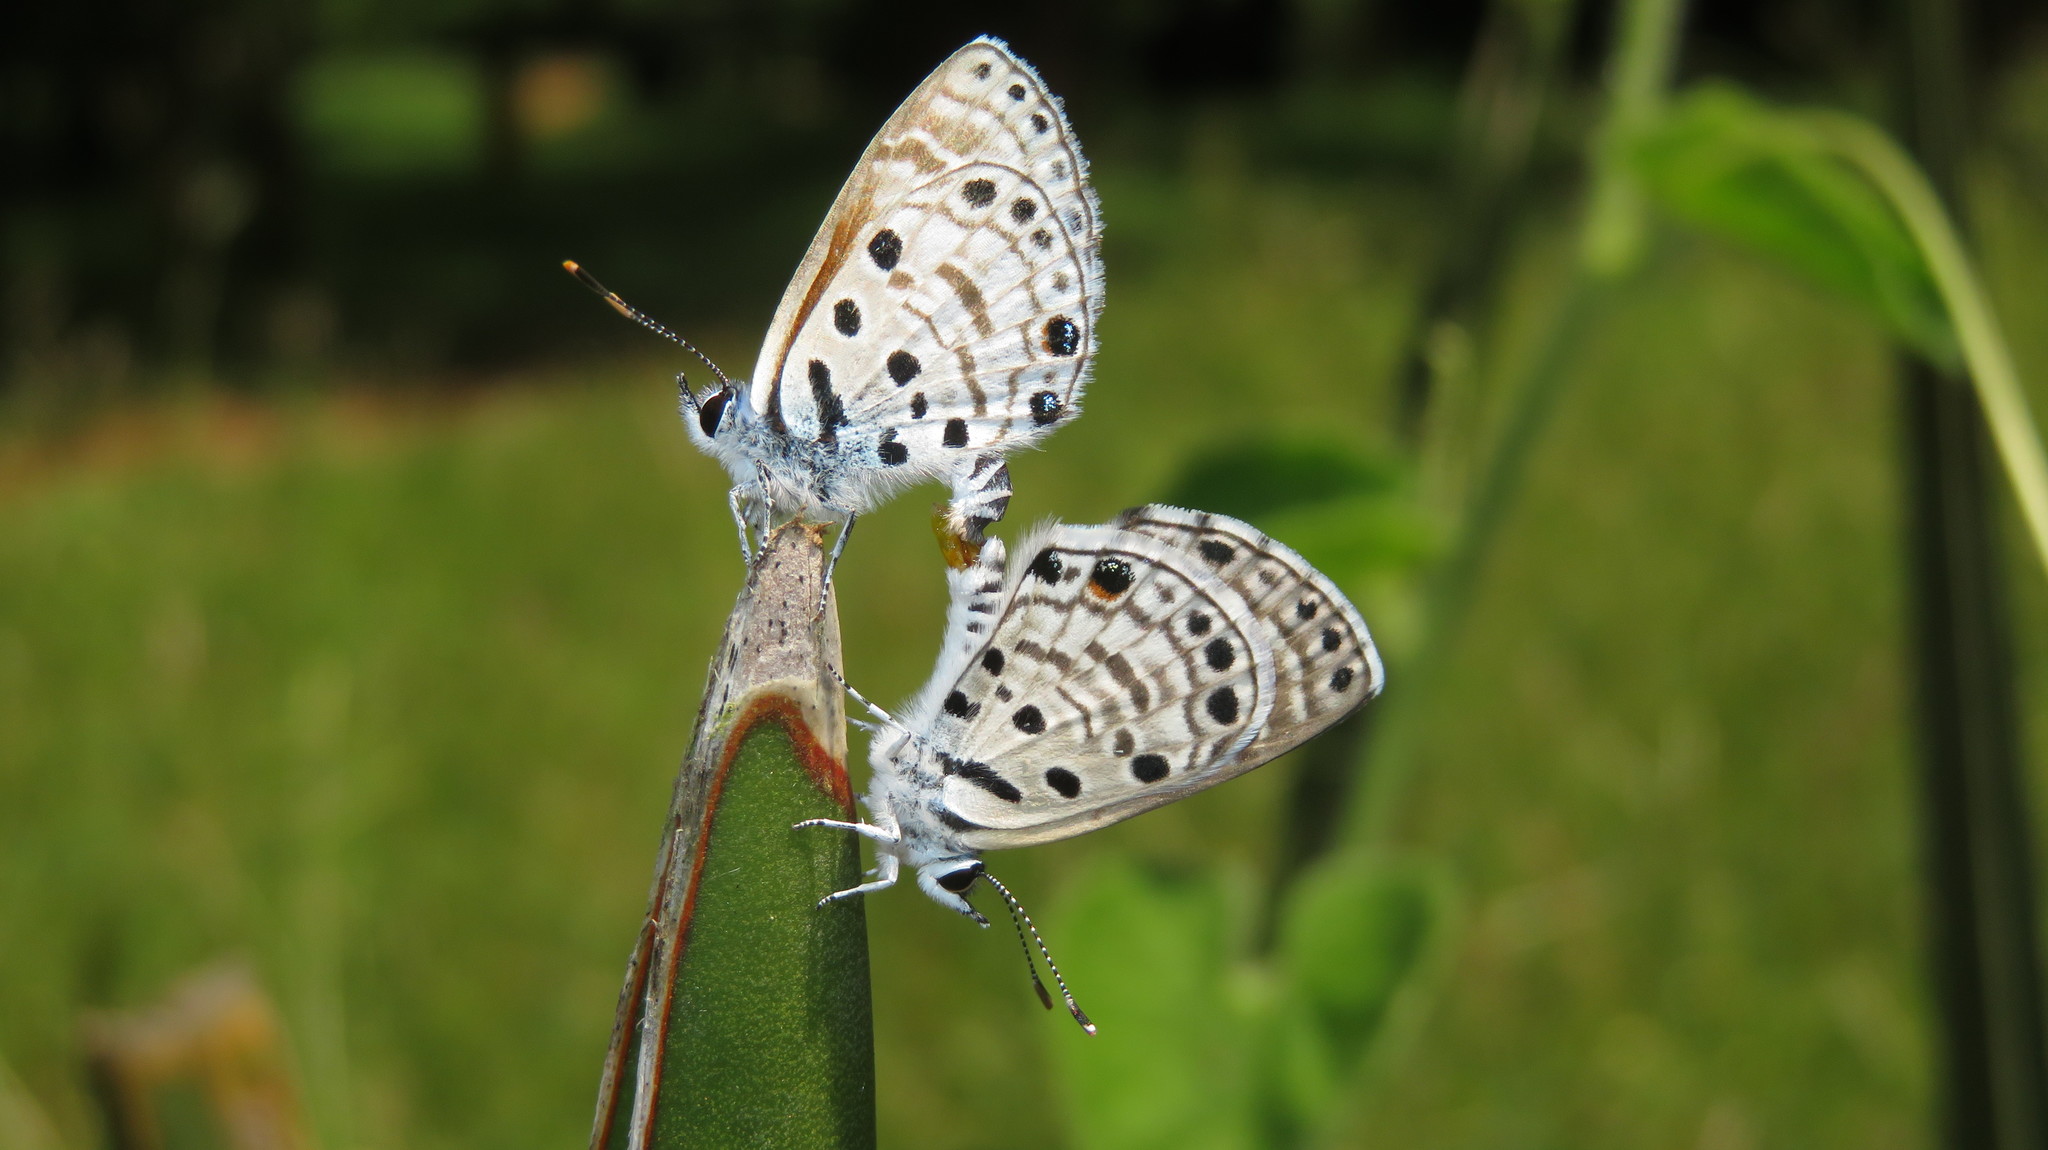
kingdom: Animalia
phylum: Arthropoda
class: Insecta
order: Lepidoptera
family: Lycaenidae
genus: Azanus
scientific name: Azanus jesous
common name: African babul blue
